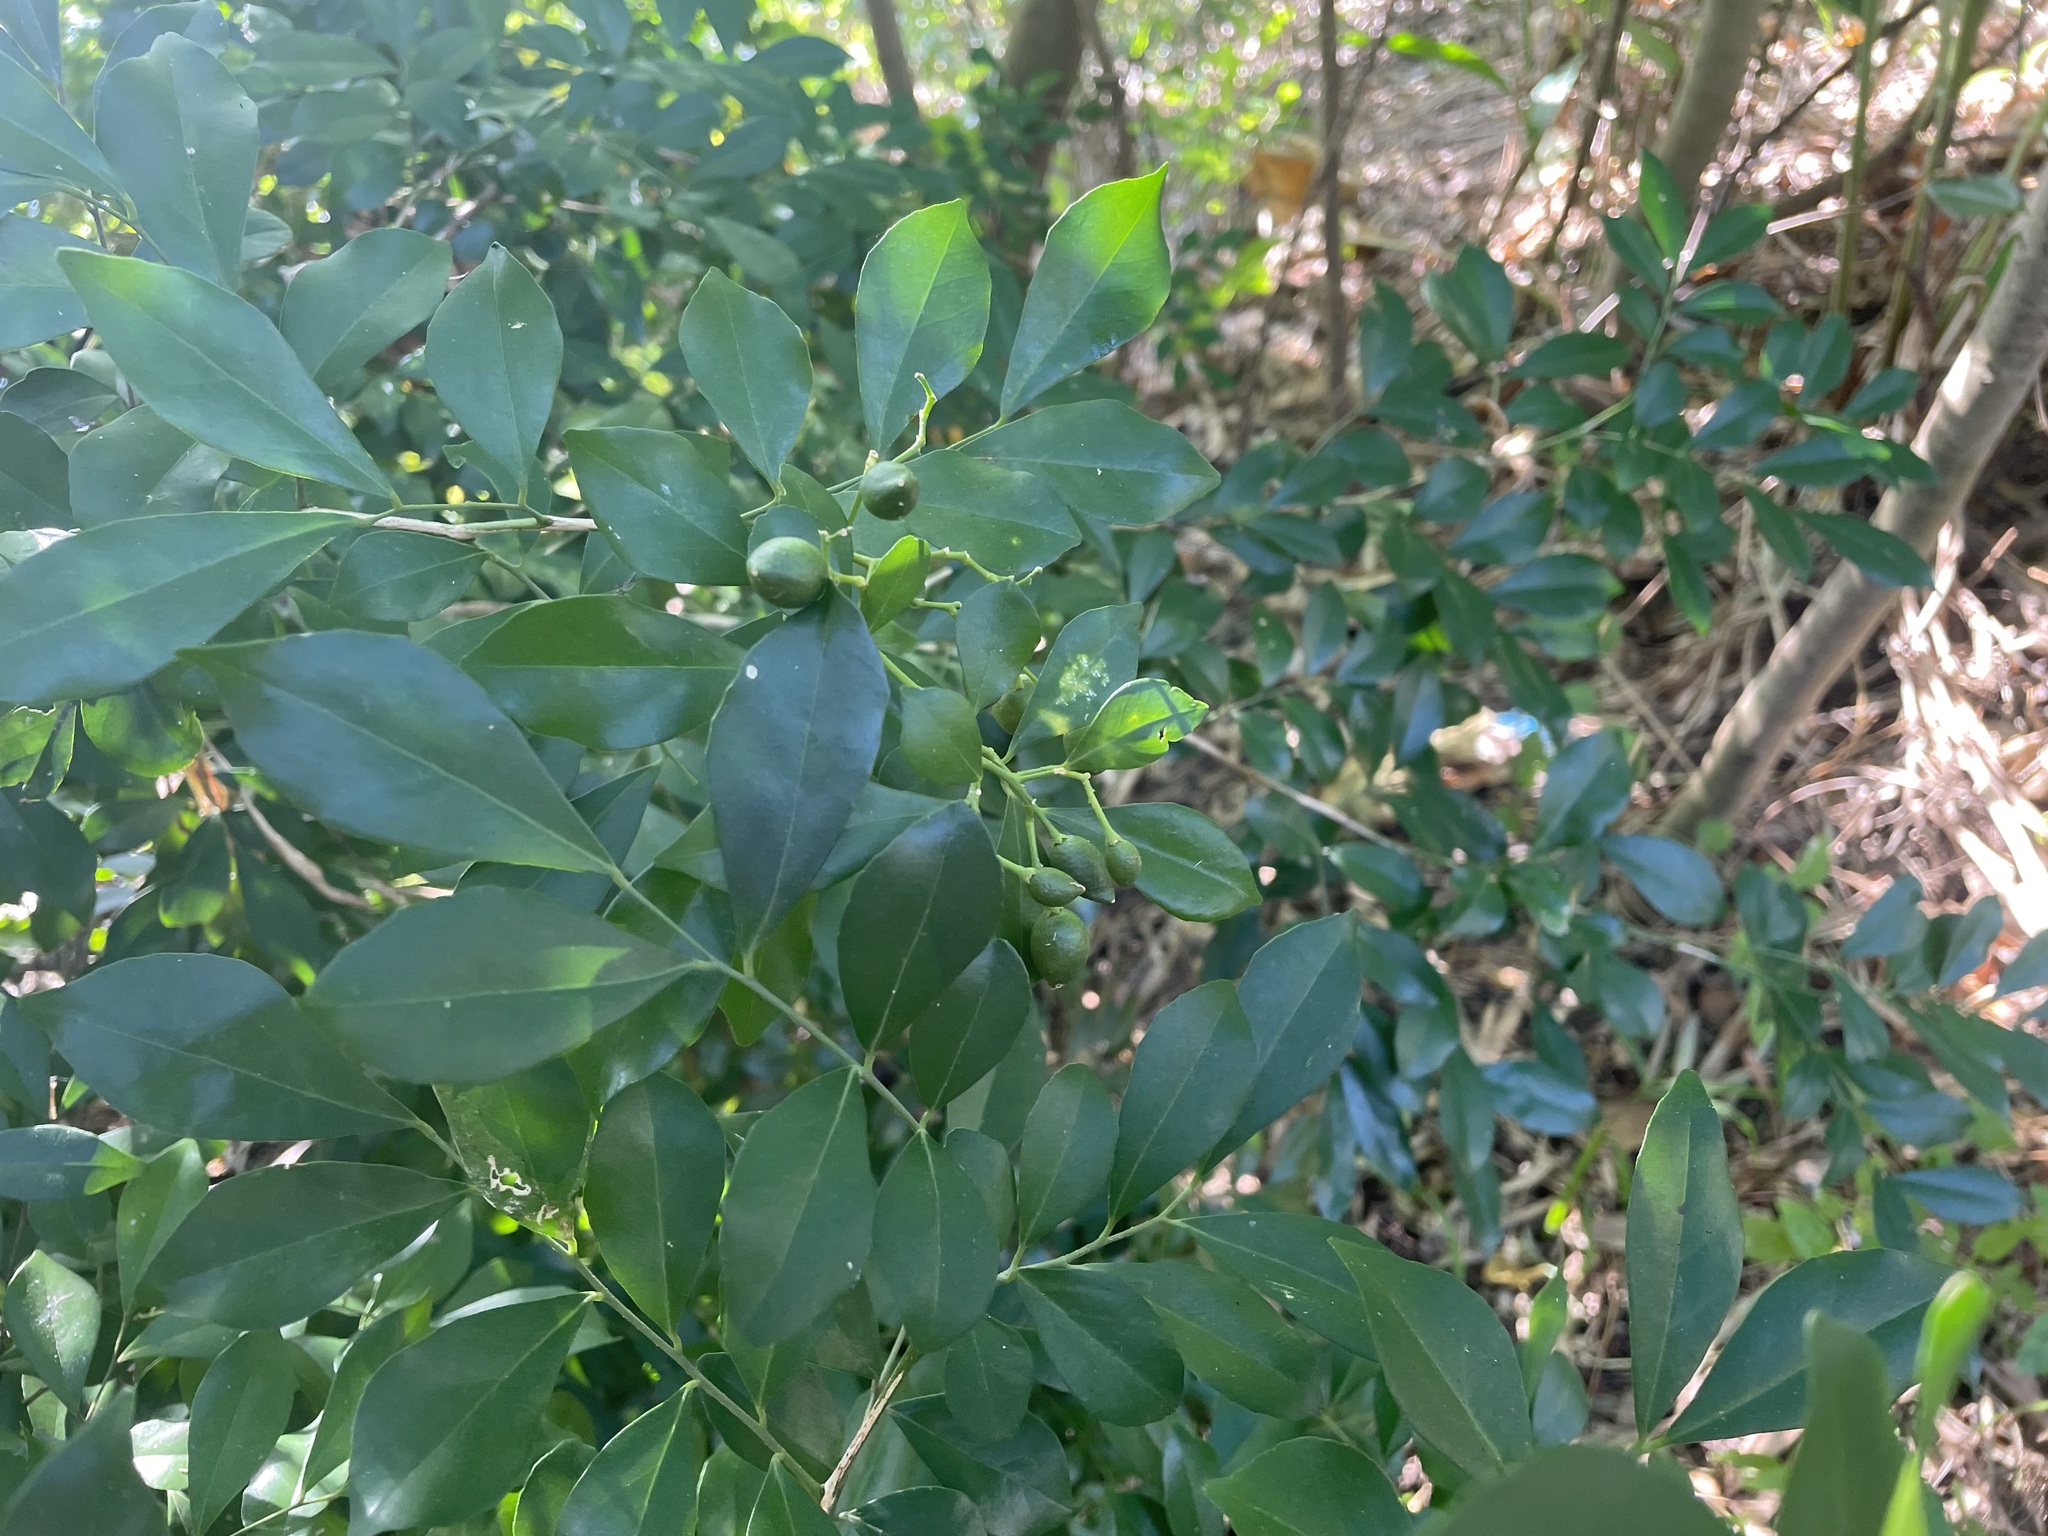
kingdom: Plantae
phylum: Tracheophyta
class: Magnoliopsida
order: Sapindales
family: Rutaceae
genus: Murraya
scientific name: Murraya paniculata
